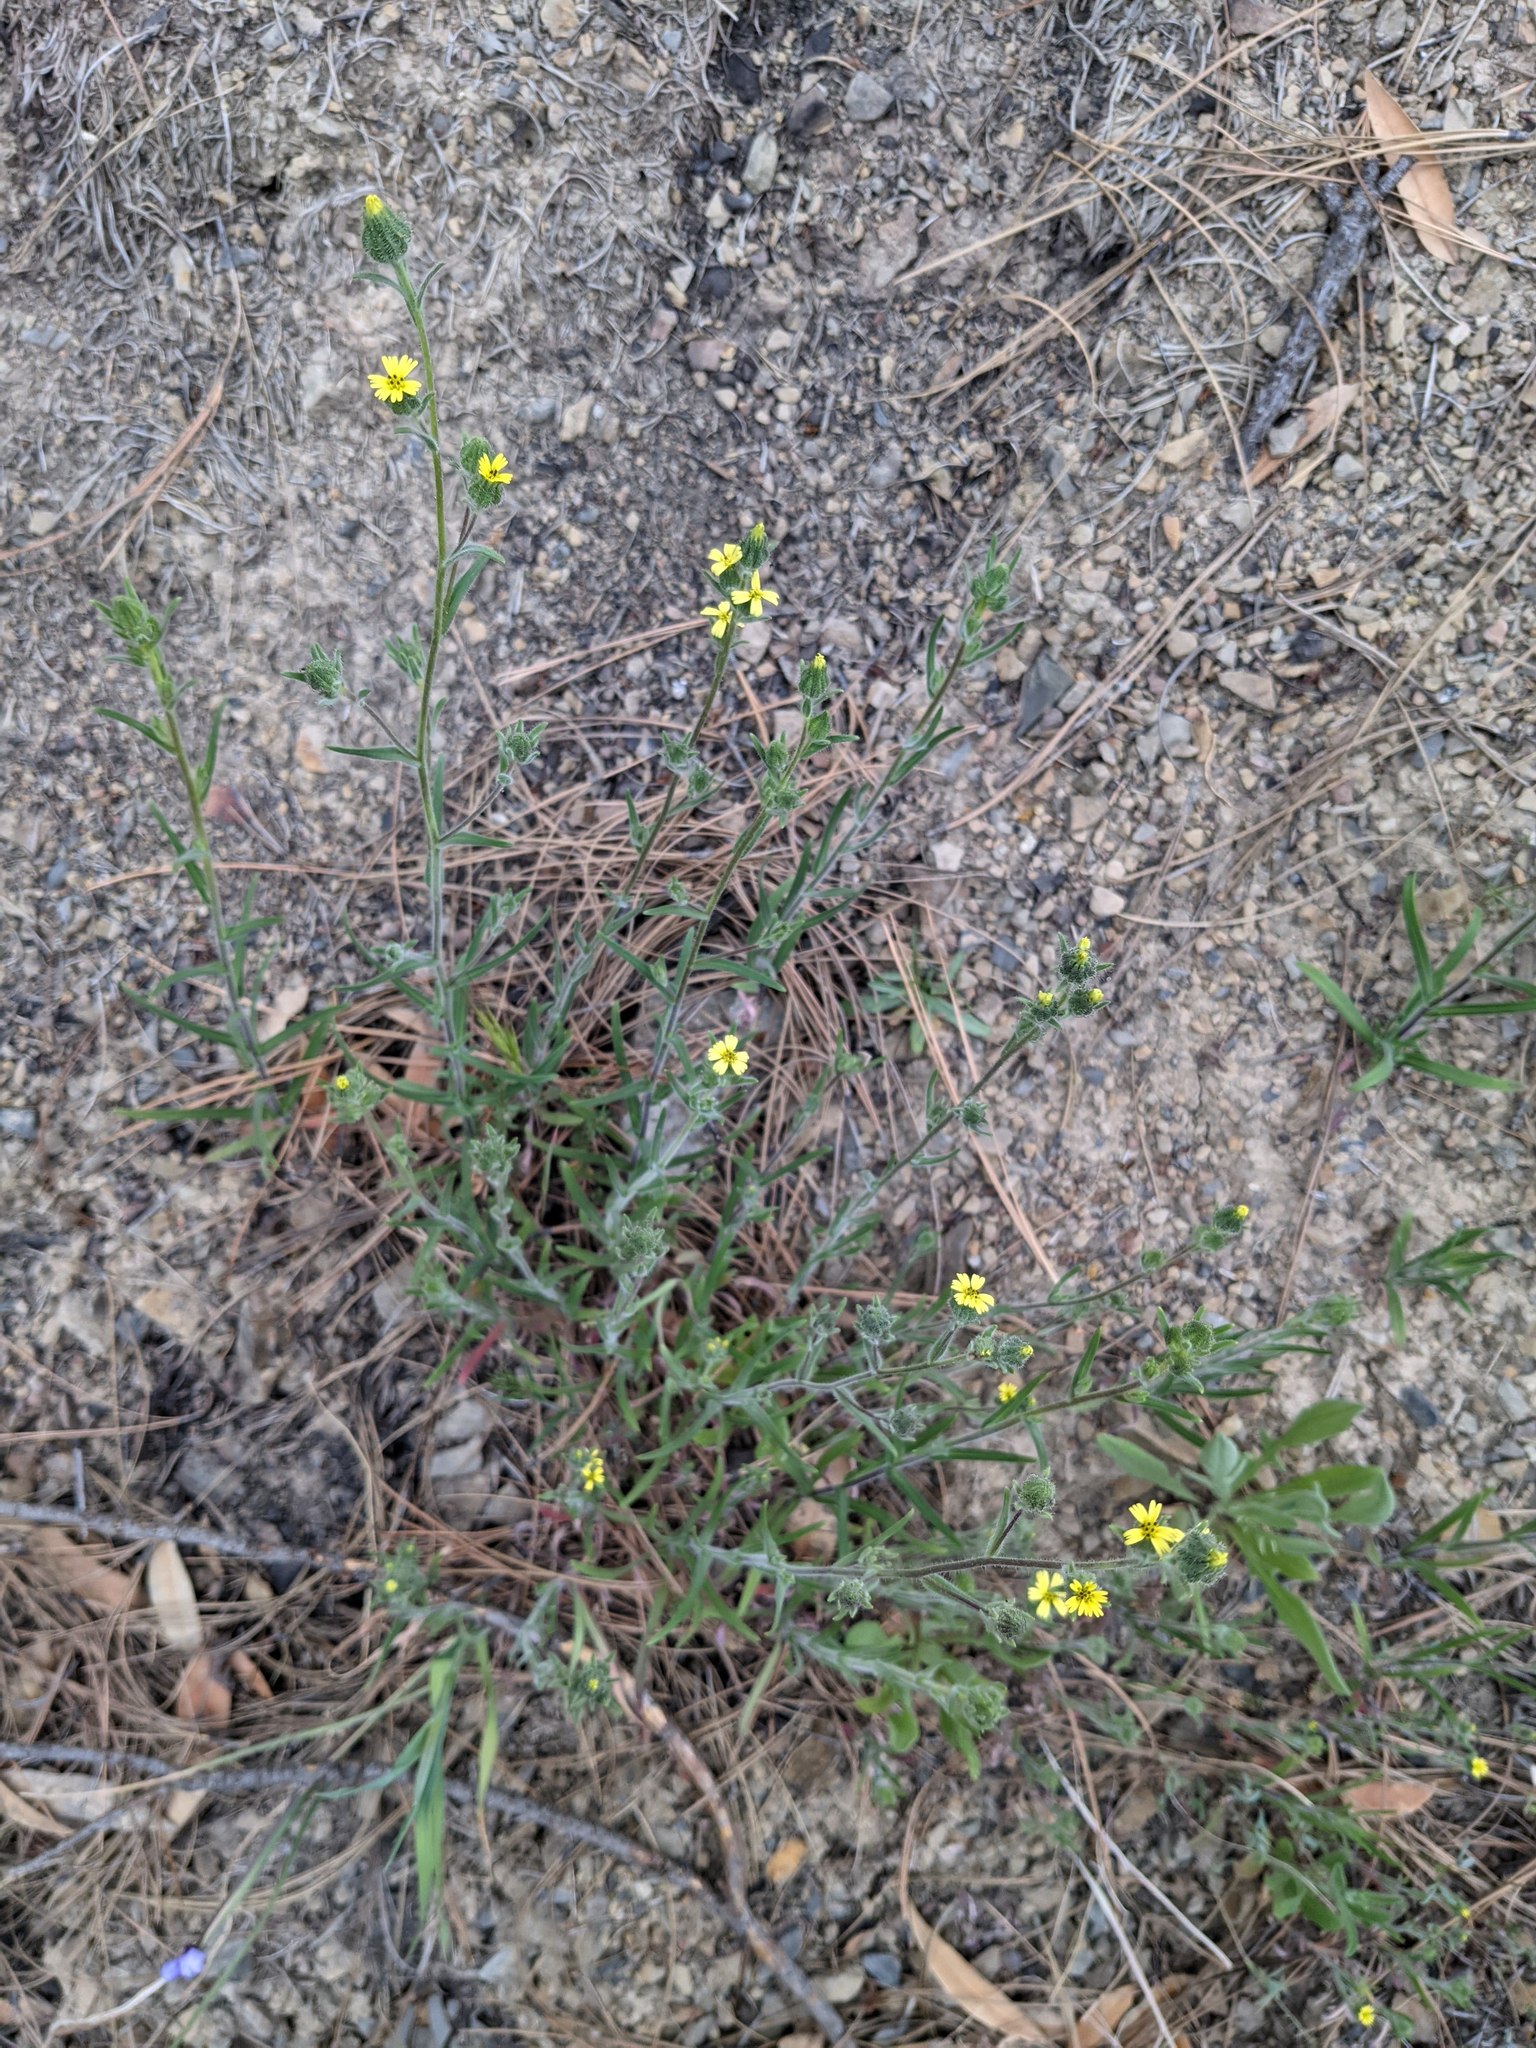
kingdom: Plantae
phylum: Tracheophyta
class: Magnoliopsida
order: Asterales
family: Asteraceae
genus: Madia
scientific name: Madia gracilis
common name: Grassy tarweed
